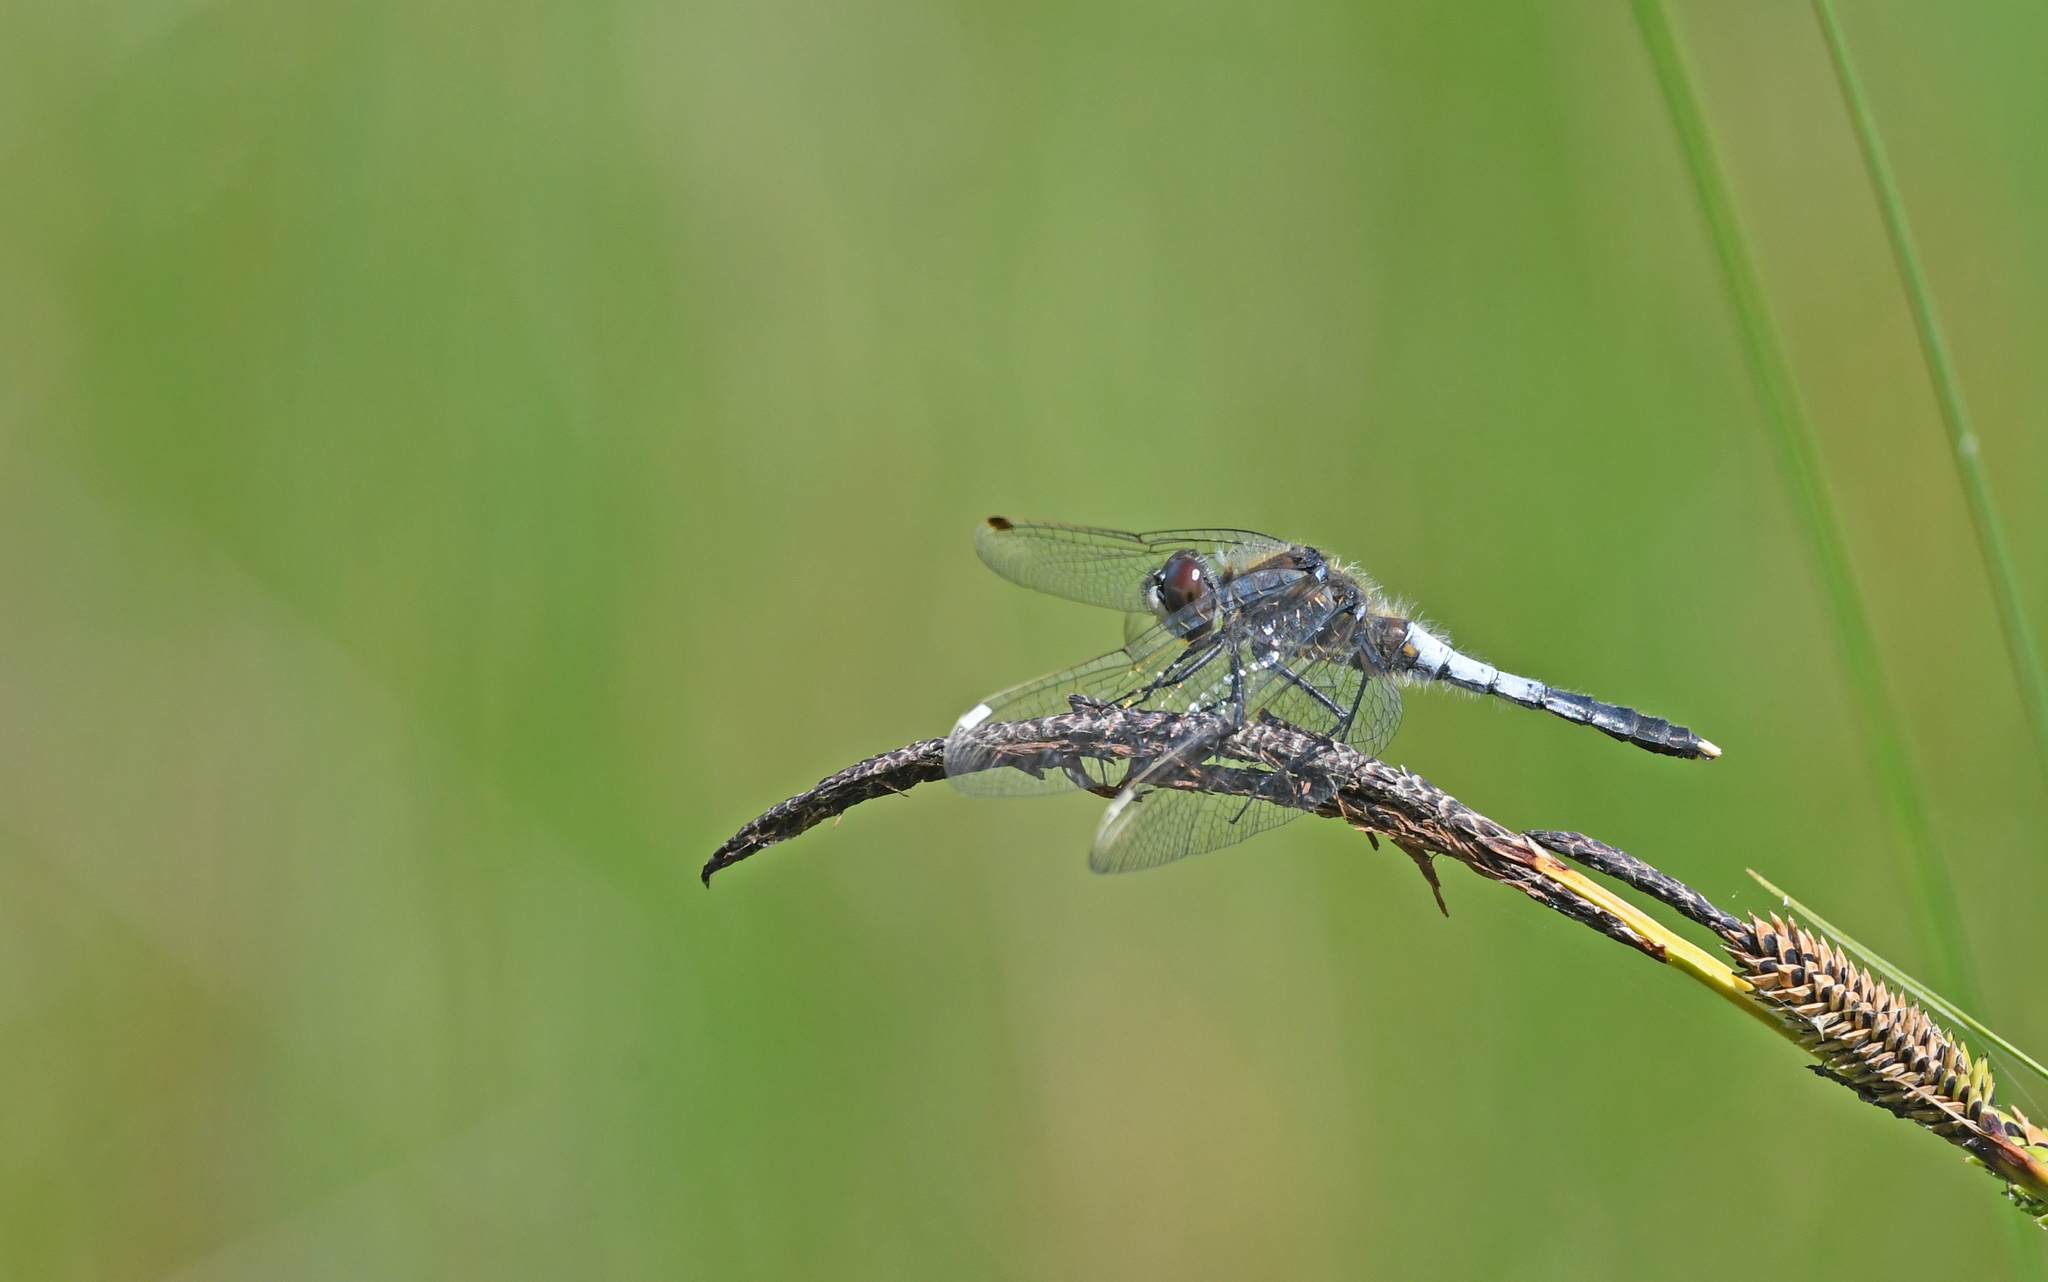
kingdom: Animalia
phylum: Arthropoda
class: Insecta
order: Odonata
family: Libellulidae
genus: Leucorrhinia
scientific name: Leucorrhinia caudalis
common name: Lilypad whiteface
